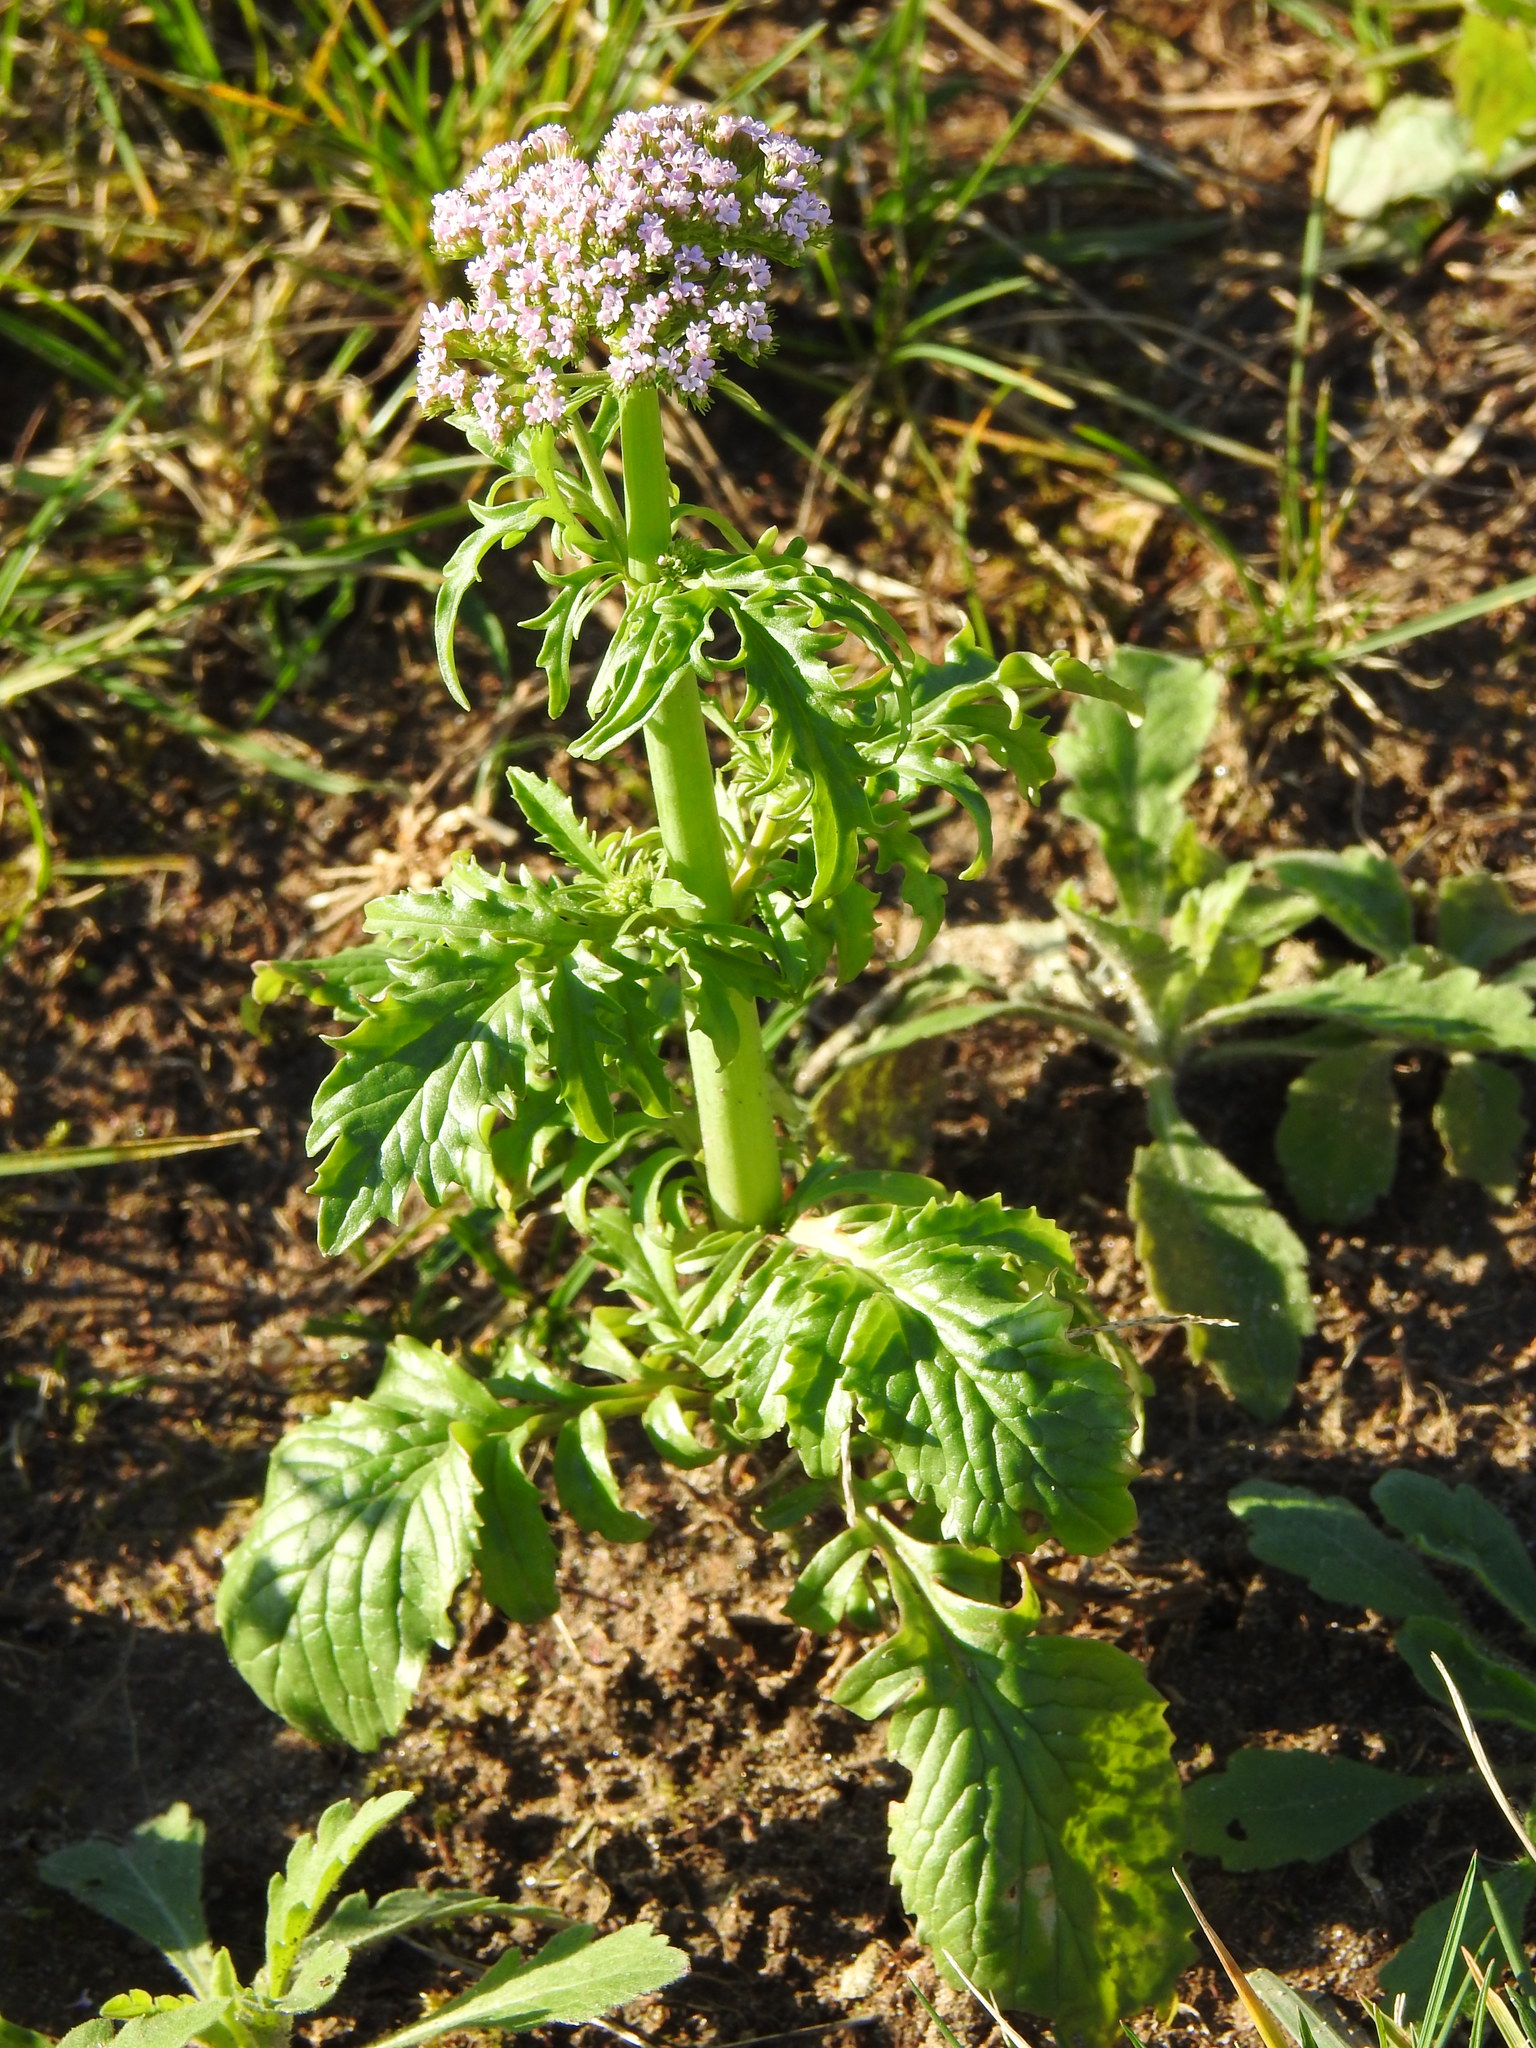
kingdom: Plantae
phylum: Tracheophyta
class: Magnoliopsida
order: Dipsacales
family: Caprifoliaceae
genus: Centranthus
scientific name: Centranthus calcitrapae
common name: Annual valerian
